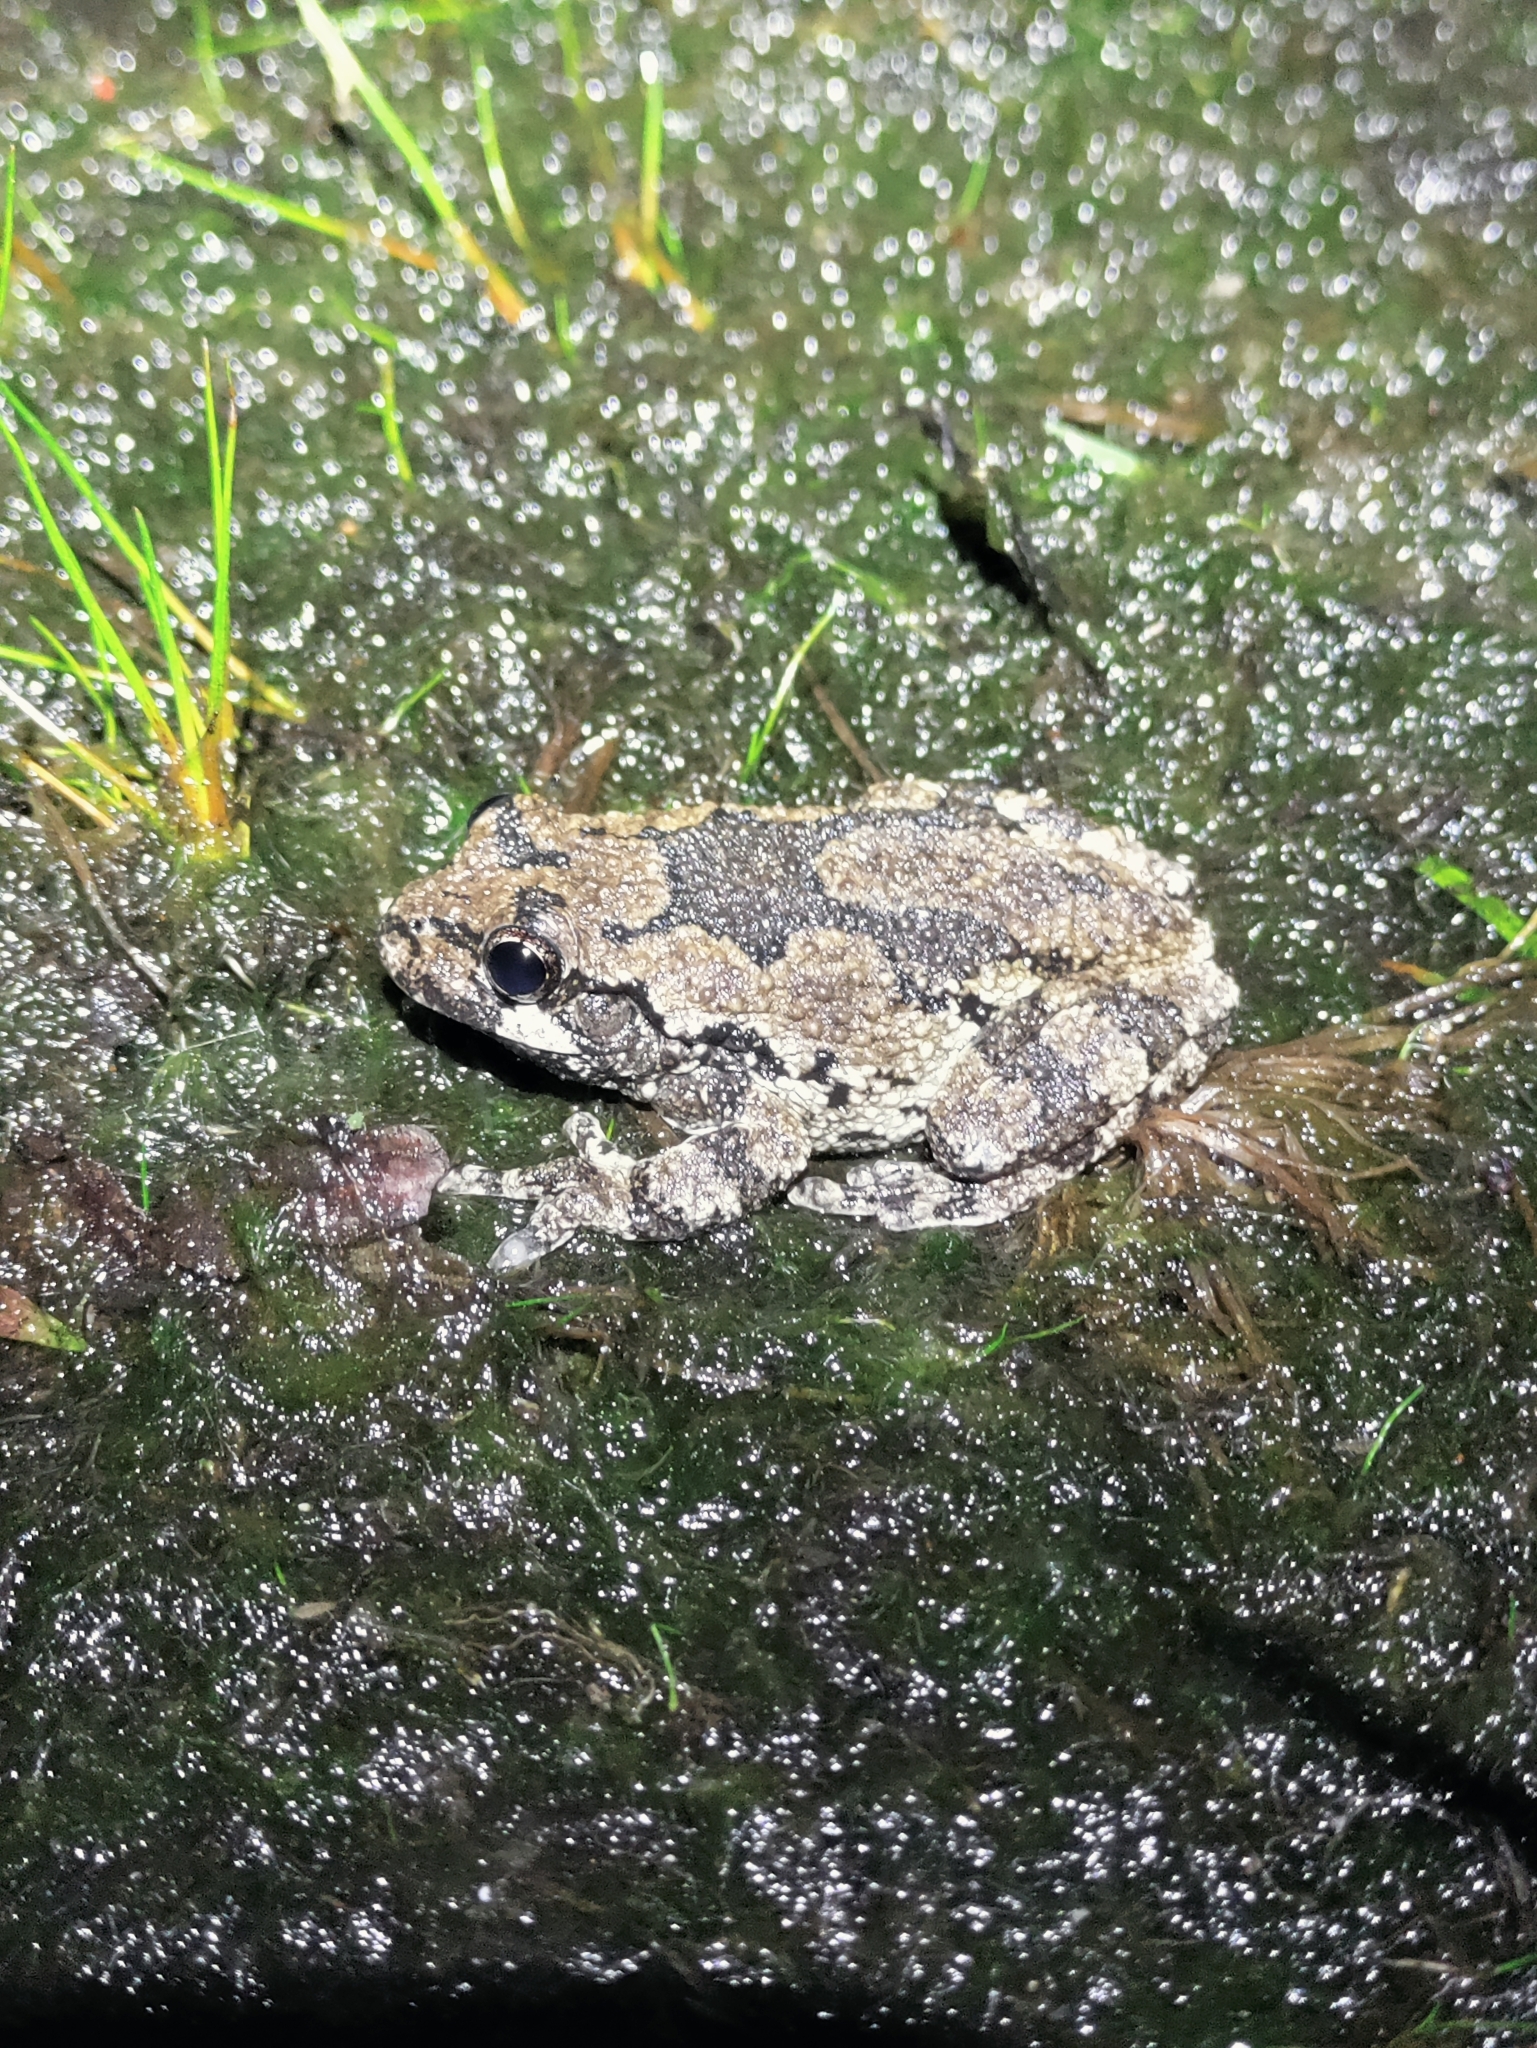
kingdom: Animalia
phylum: Chordata
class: Amphibia
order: Anura
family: Hylidae
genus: Dryophytes
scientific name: Dryophytes versicolor
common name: Gray treefrog
